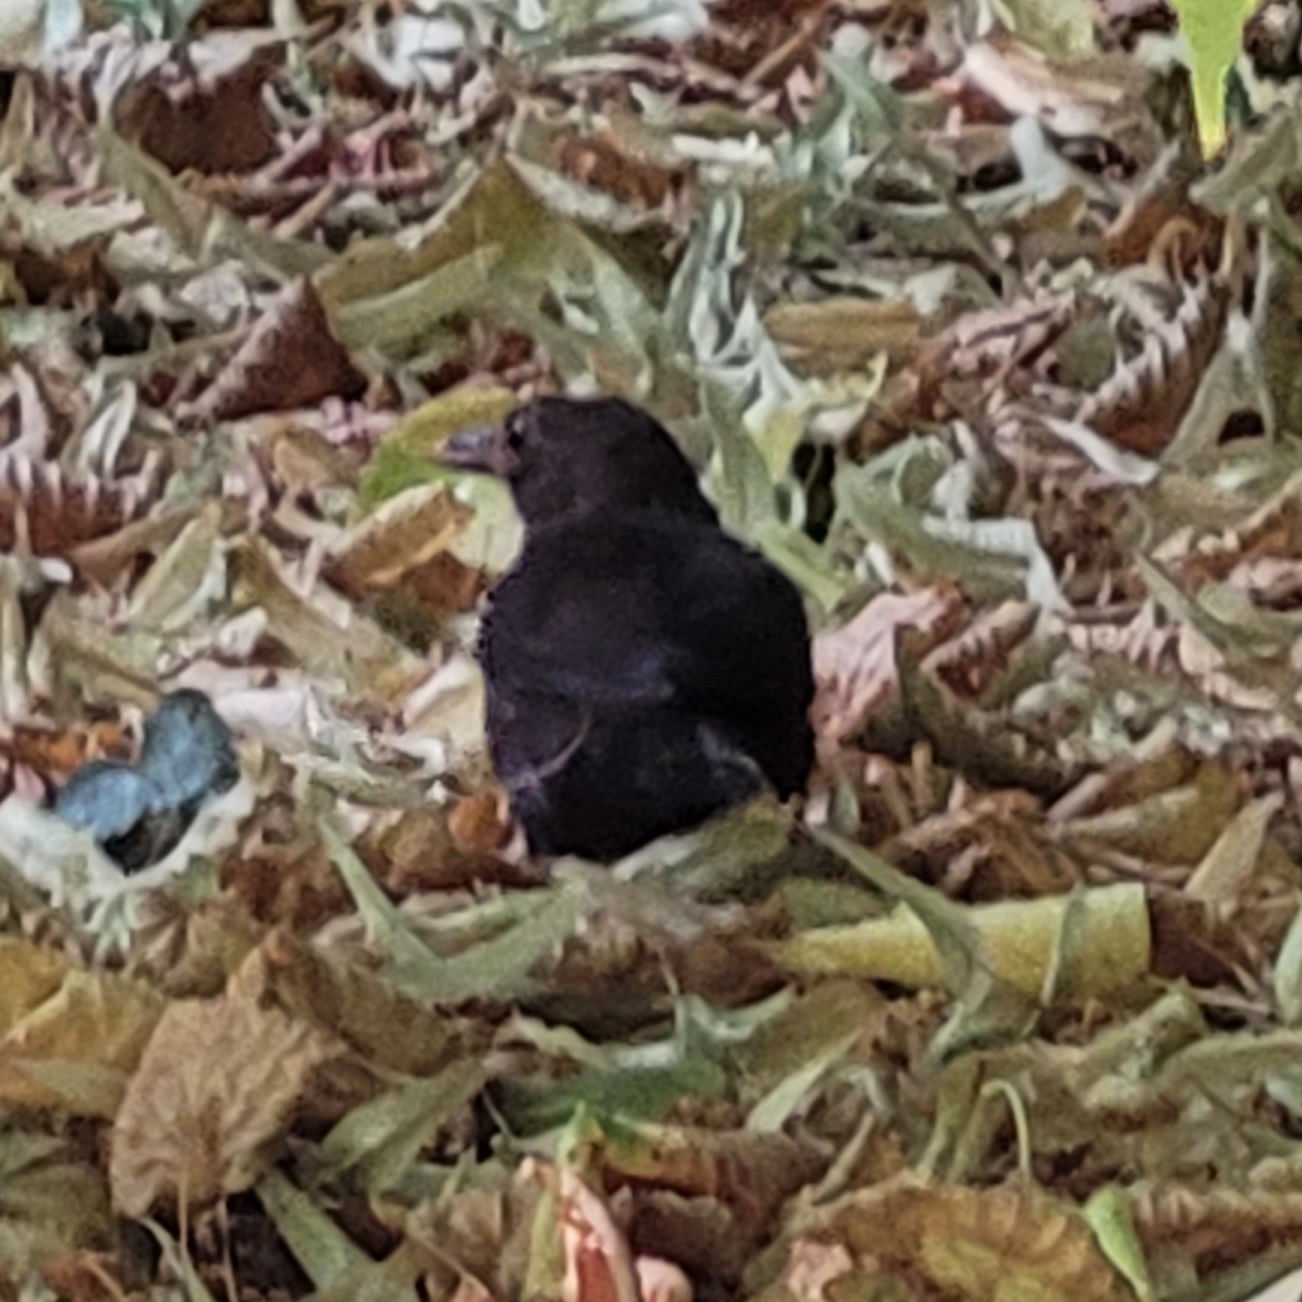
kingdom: Animalia
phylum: Chordata
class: Aves
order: Passeriformes
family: Turdidae
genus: Turdus
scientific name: Turdus merula
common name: Common blackbird
